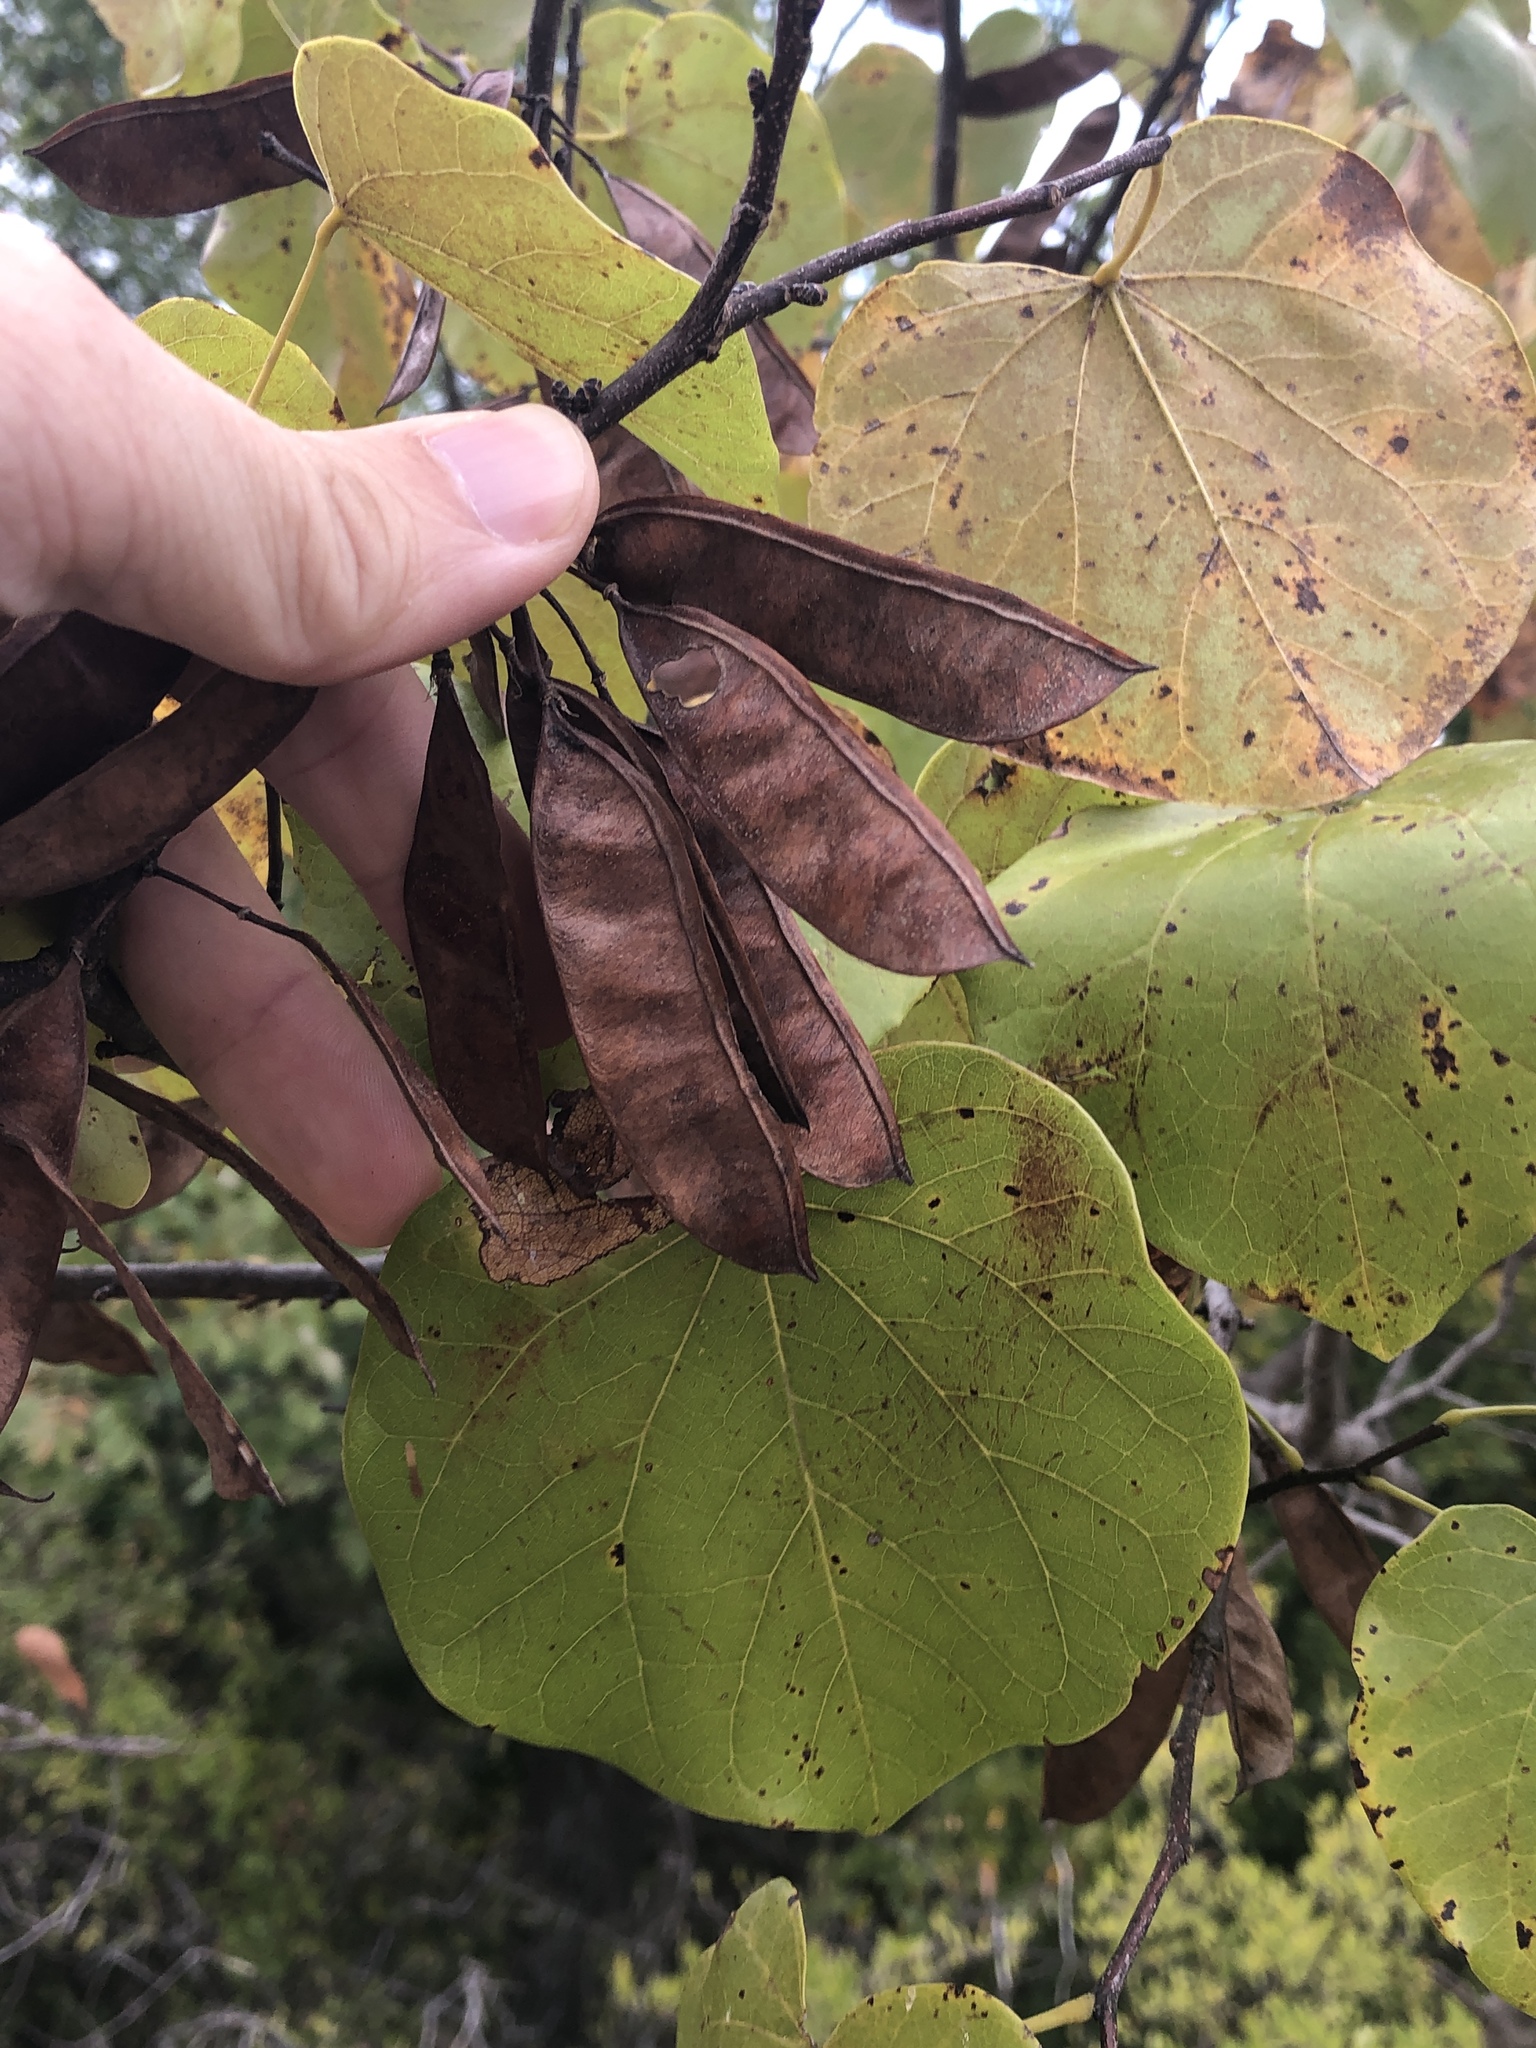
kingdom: Plantae
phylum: Tracheophyta
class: Magnoliopsida
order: Fabales
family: Fabaceae
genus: Cercis
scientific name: Cercis canadensis
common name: Eastern redbud
